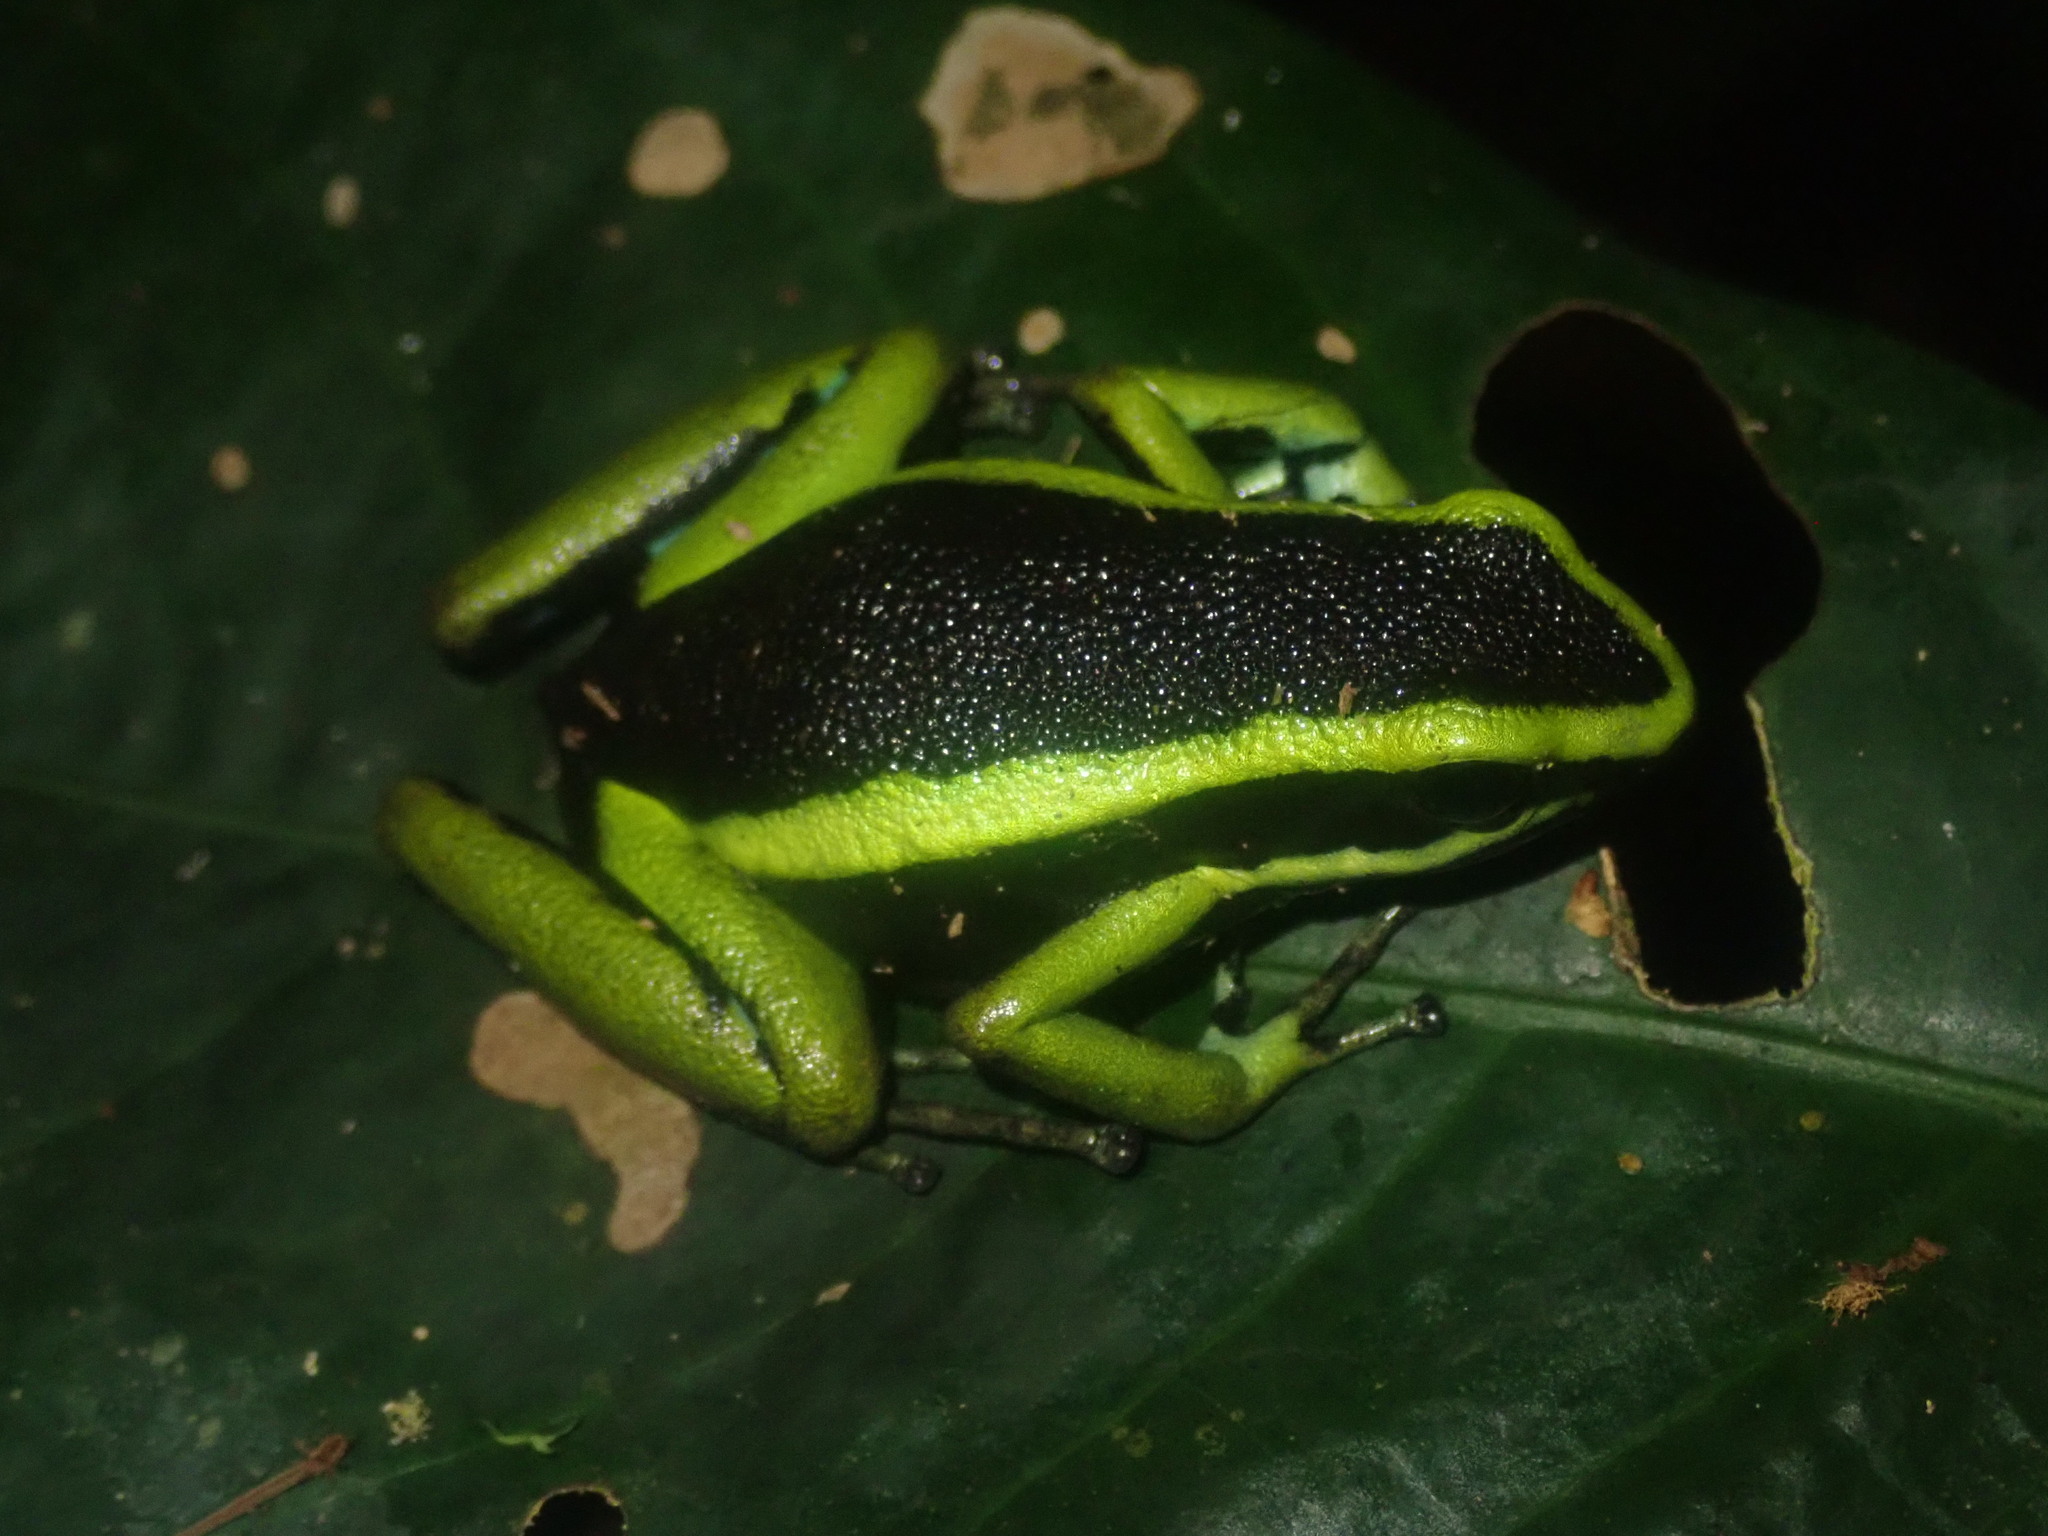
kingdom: Animalia
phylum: Chordata
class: Amphibia
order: Anura
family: Dendrobatidae
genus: Ameerega
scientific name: Ameerega trivittata
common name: Three-striped arrow-poison frog
